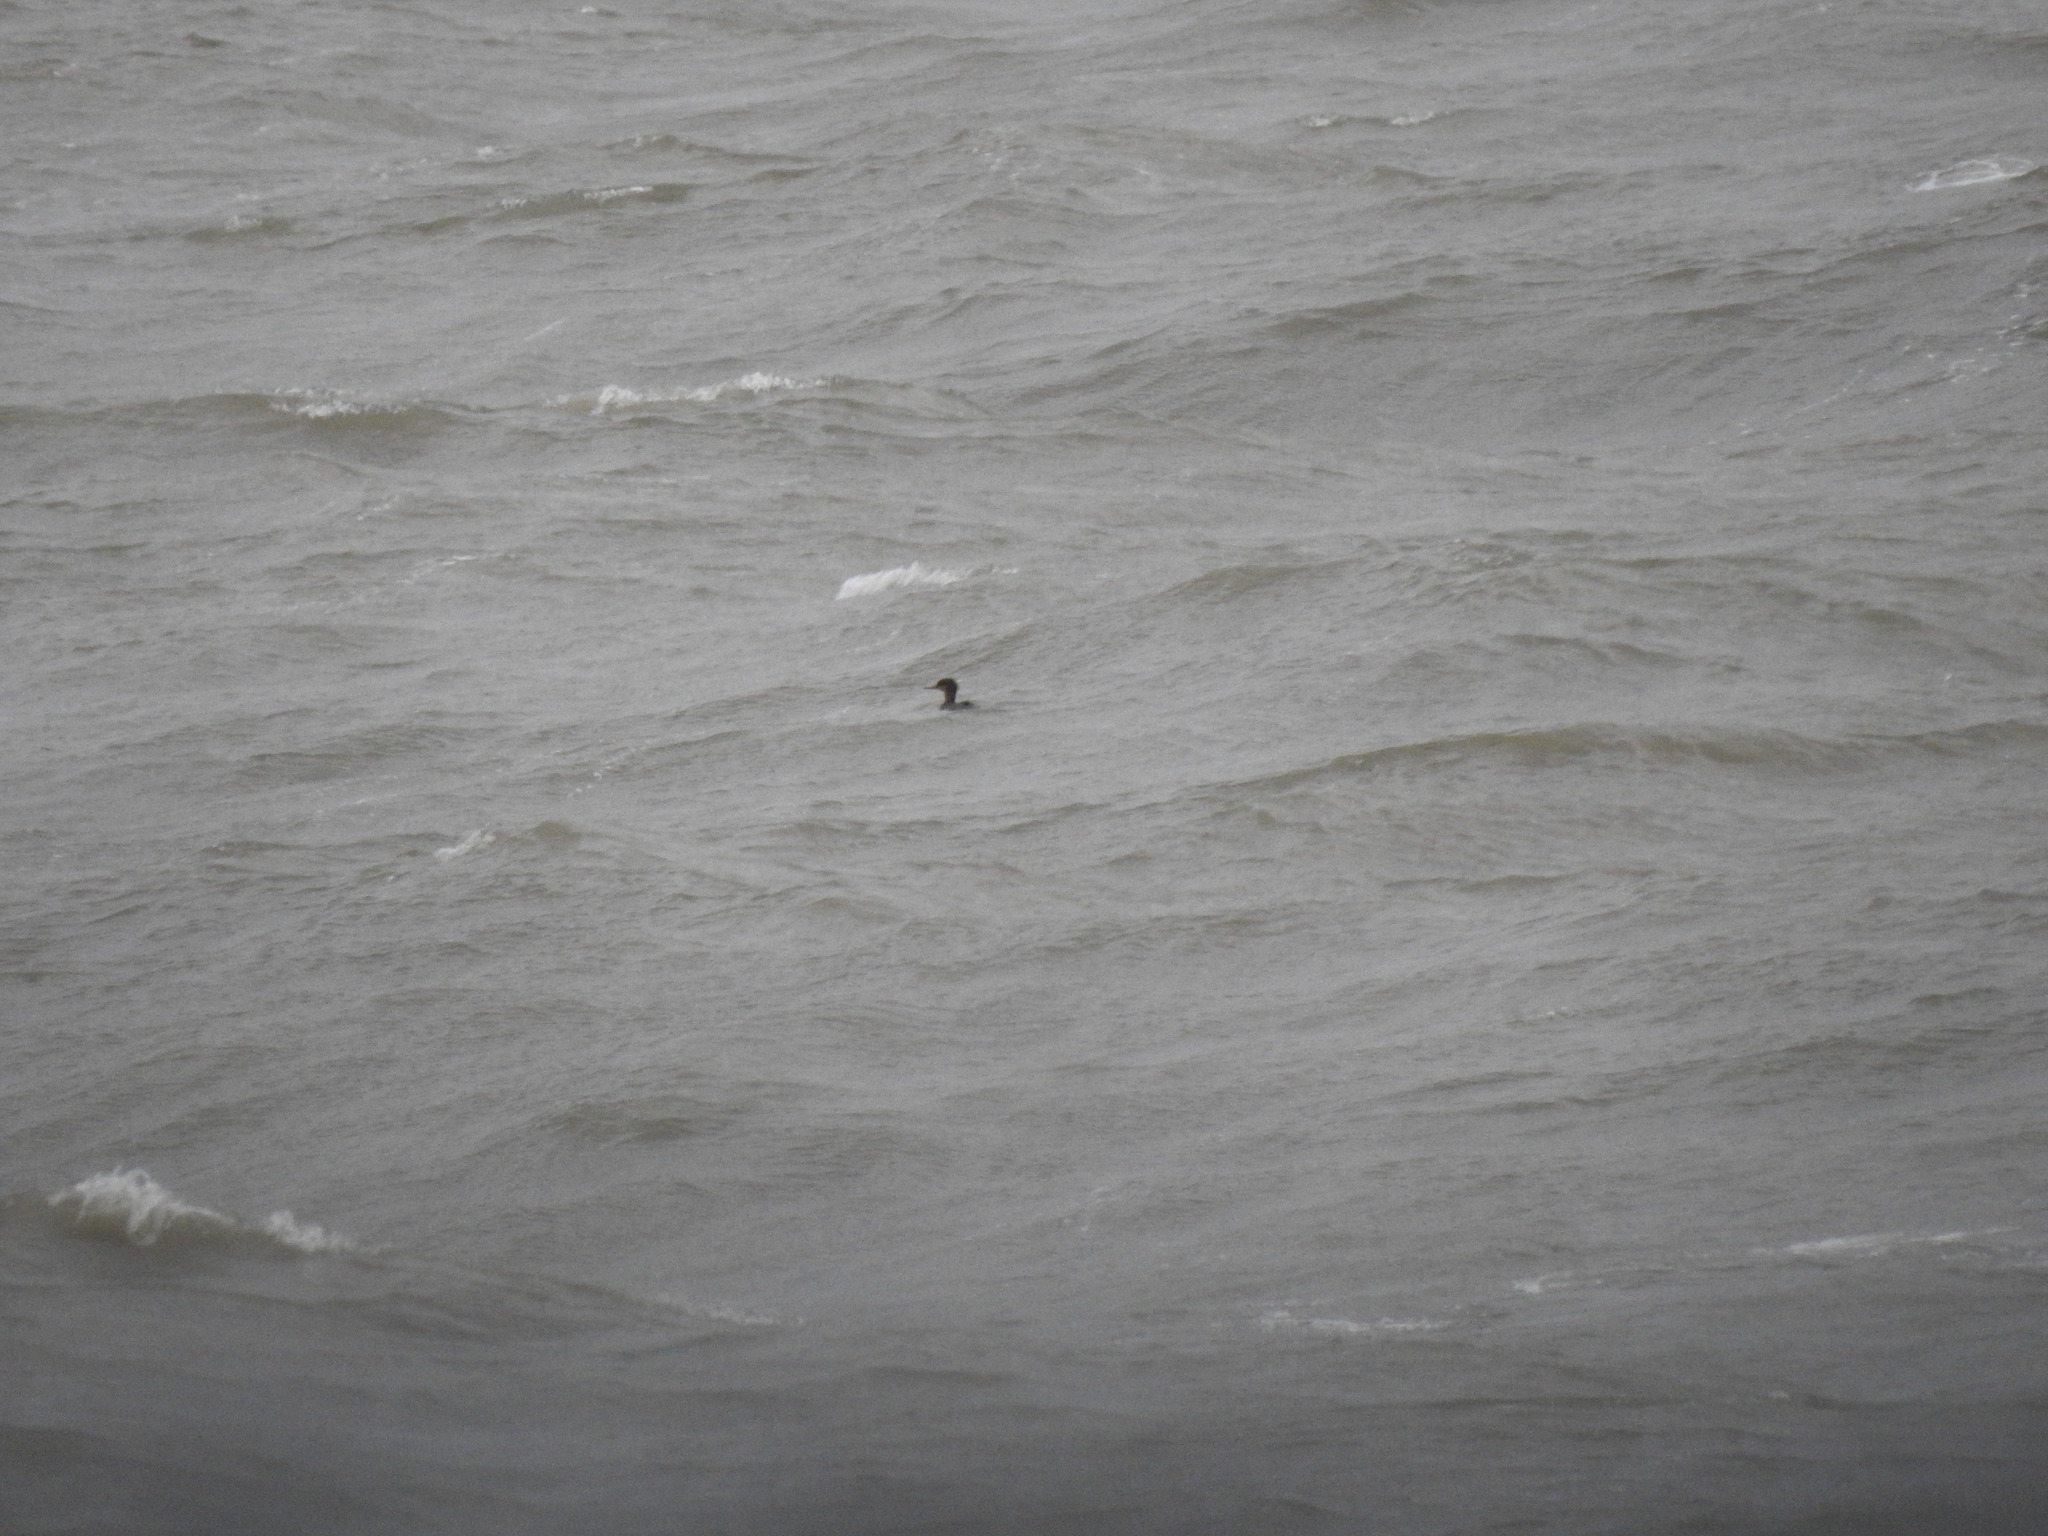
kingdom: Animalia
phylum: Chordata
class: Aves
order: Anseriformes
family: Anatidae
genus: Mergus
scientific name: Mergus serrator
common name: Red-breasted merganser
